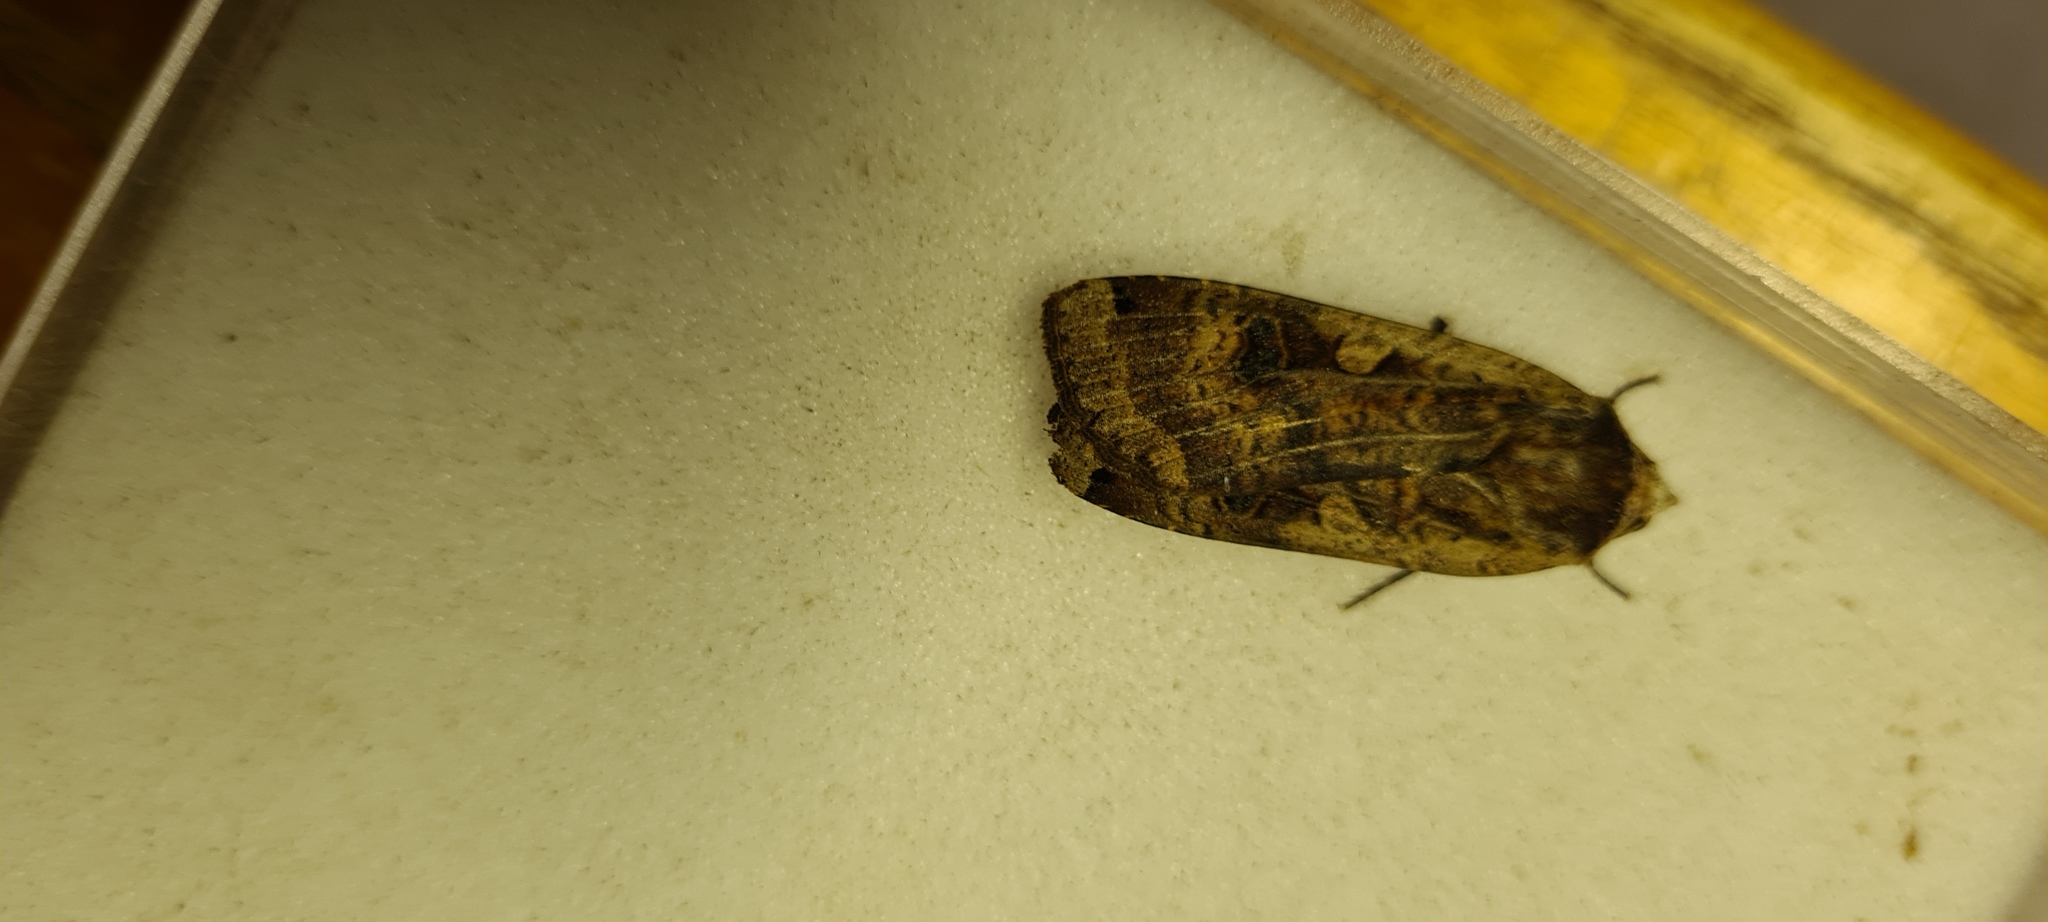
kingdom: Animalia
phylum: Arthropoda
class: Insecta
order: Lepidoptera
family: Noctuidae
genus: Noctua
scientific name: Noctua pronuba
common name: Large yellow underwing
